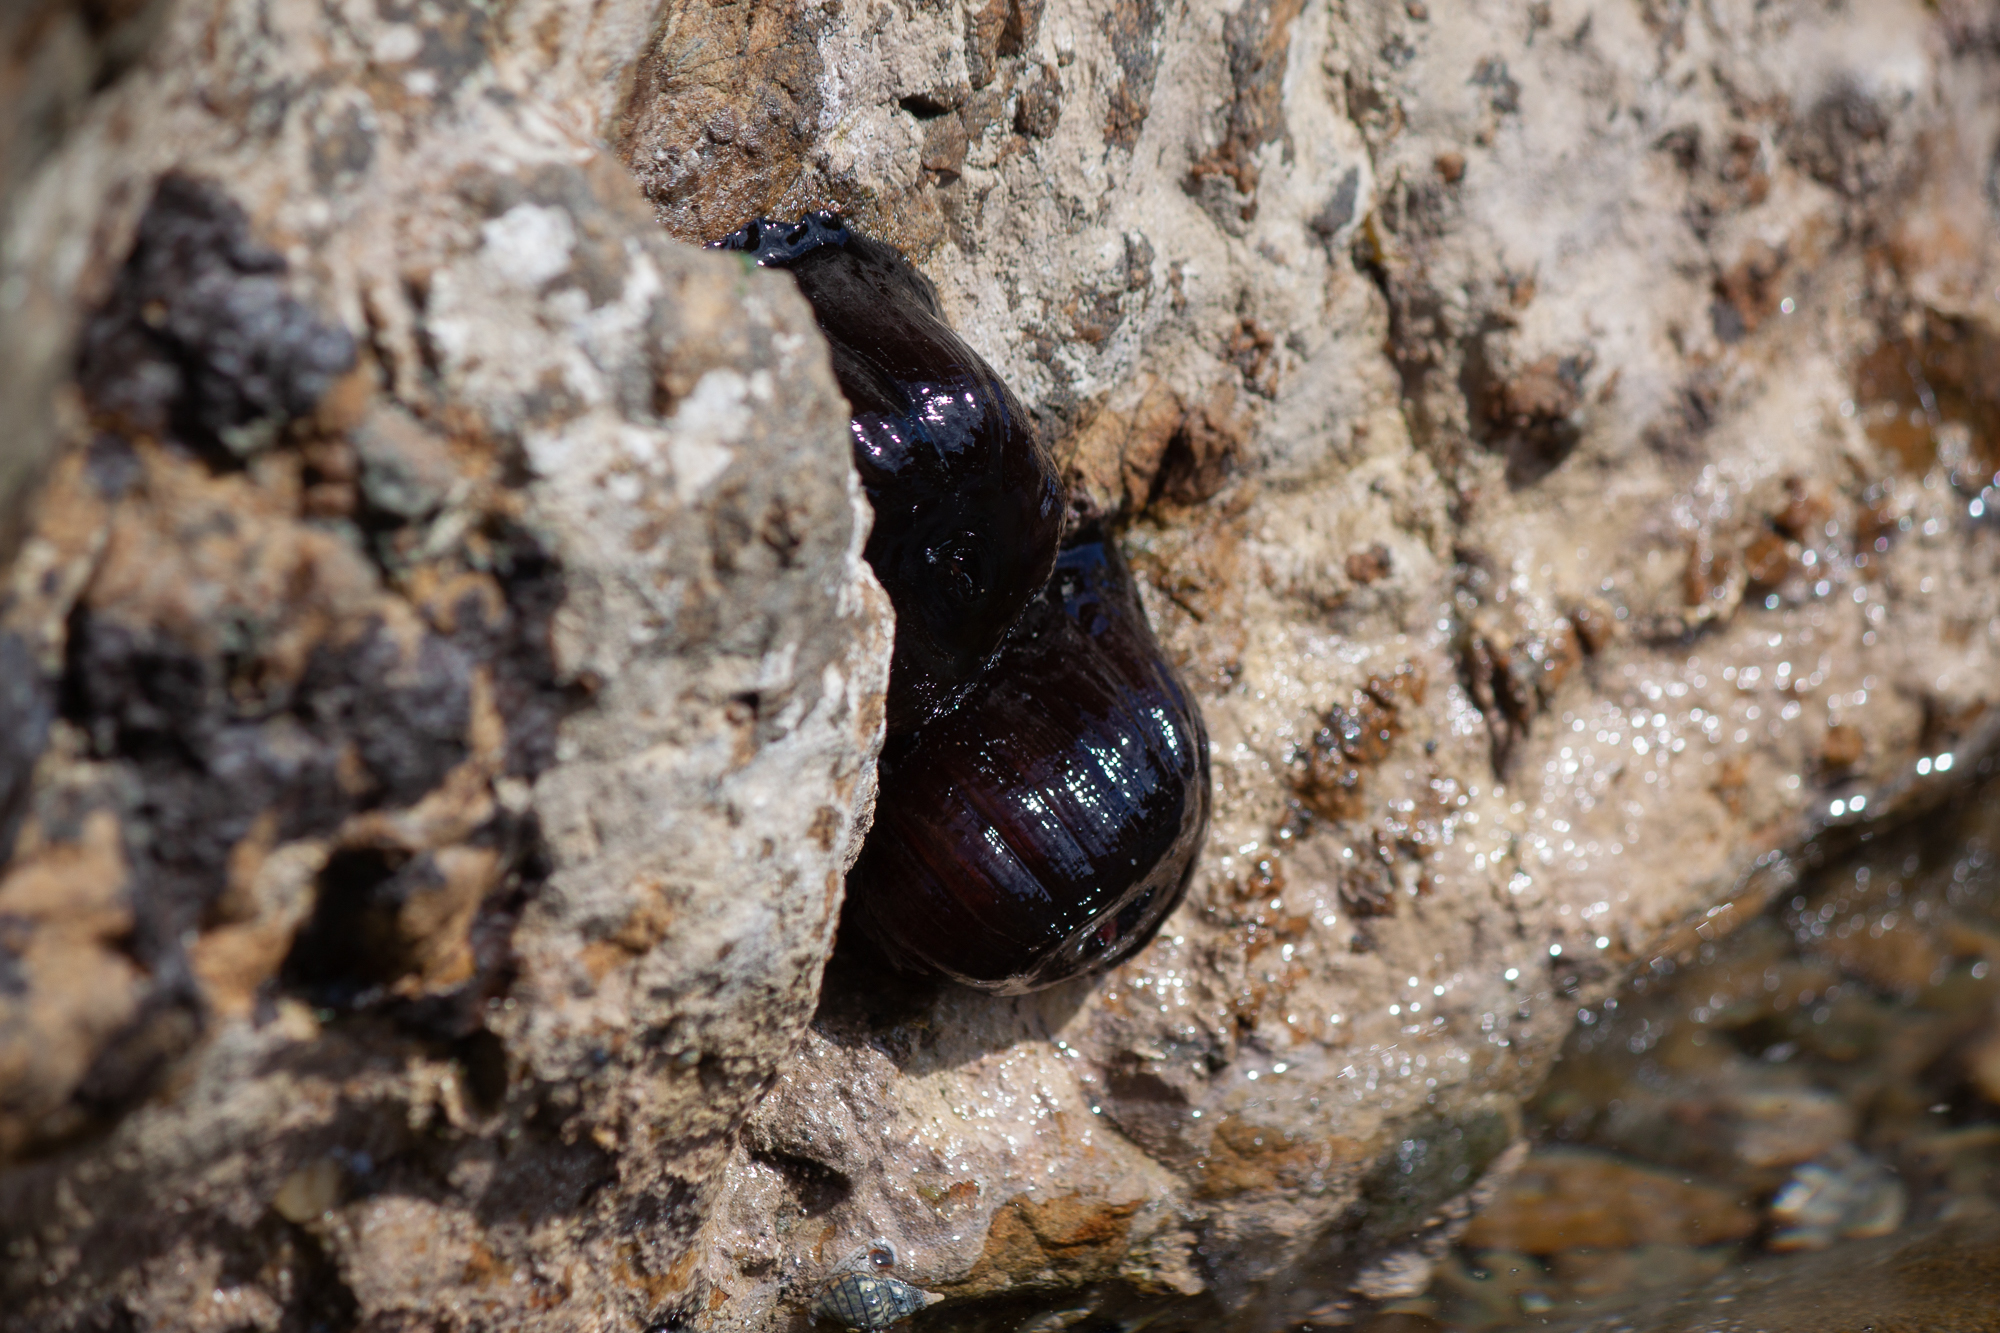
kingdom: Animalia
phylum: Cnidaria
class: Anthozoa
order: Actiniaria
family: Actiniidae
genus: Actinia
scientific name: Actinia tenebrosa
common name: Waratah anemone
